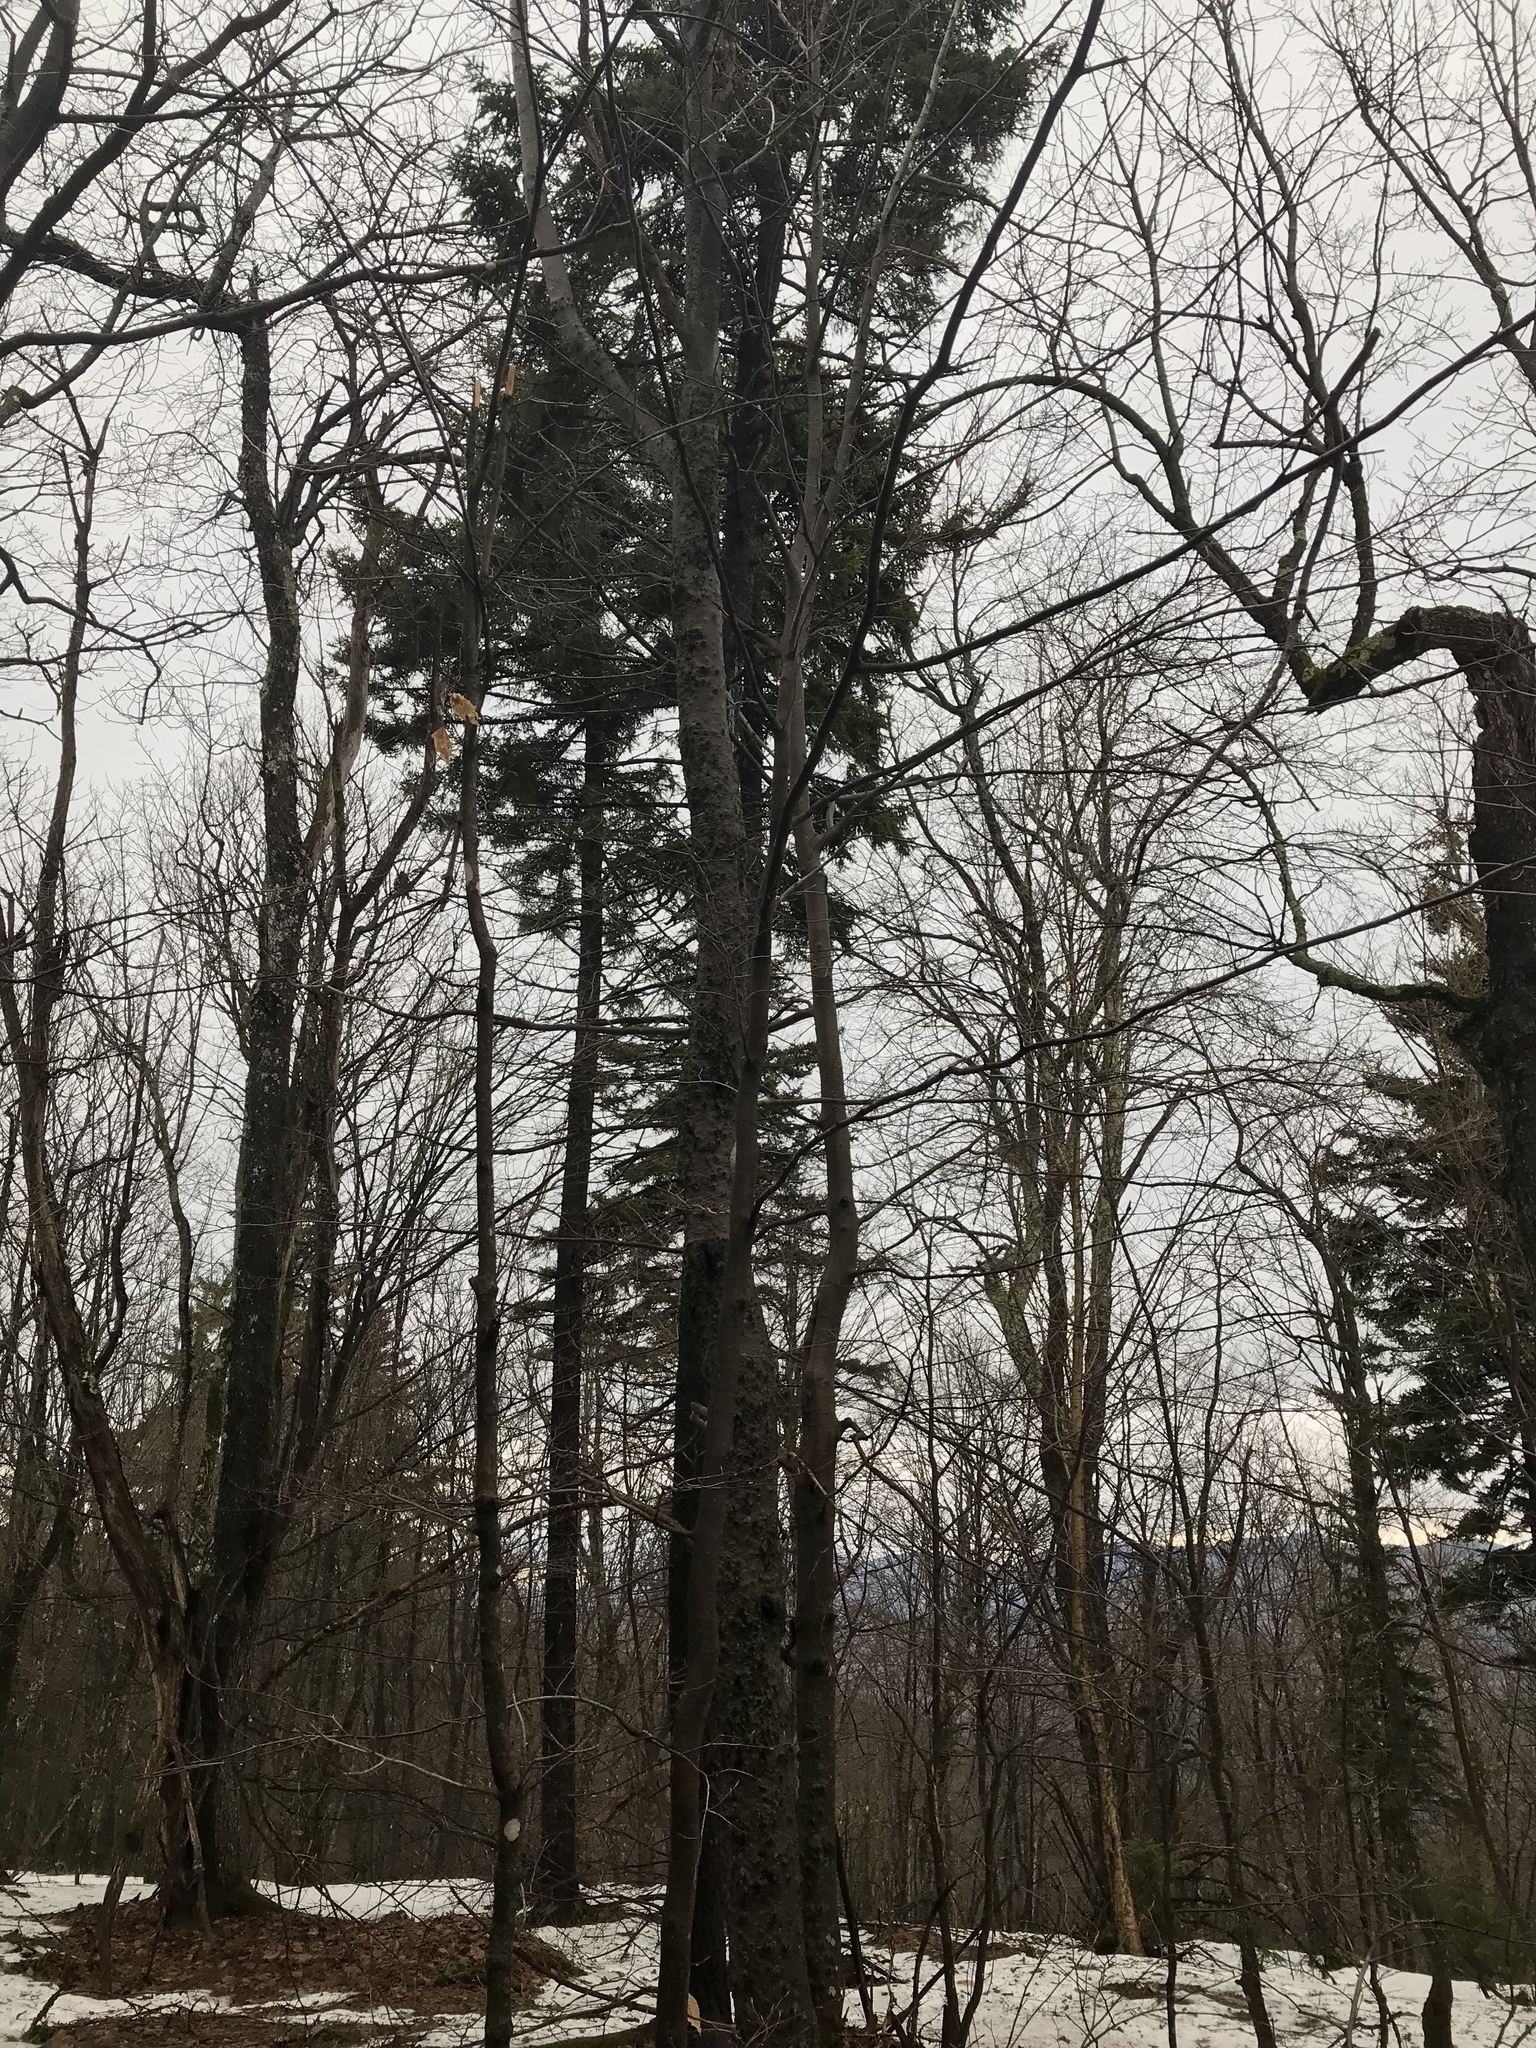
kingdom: Plantae
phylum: Tracheophyta
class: Pinopsida
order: Pinales
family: Pinaceae
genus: Picea
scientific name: Picea rubens
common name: Red spruce
